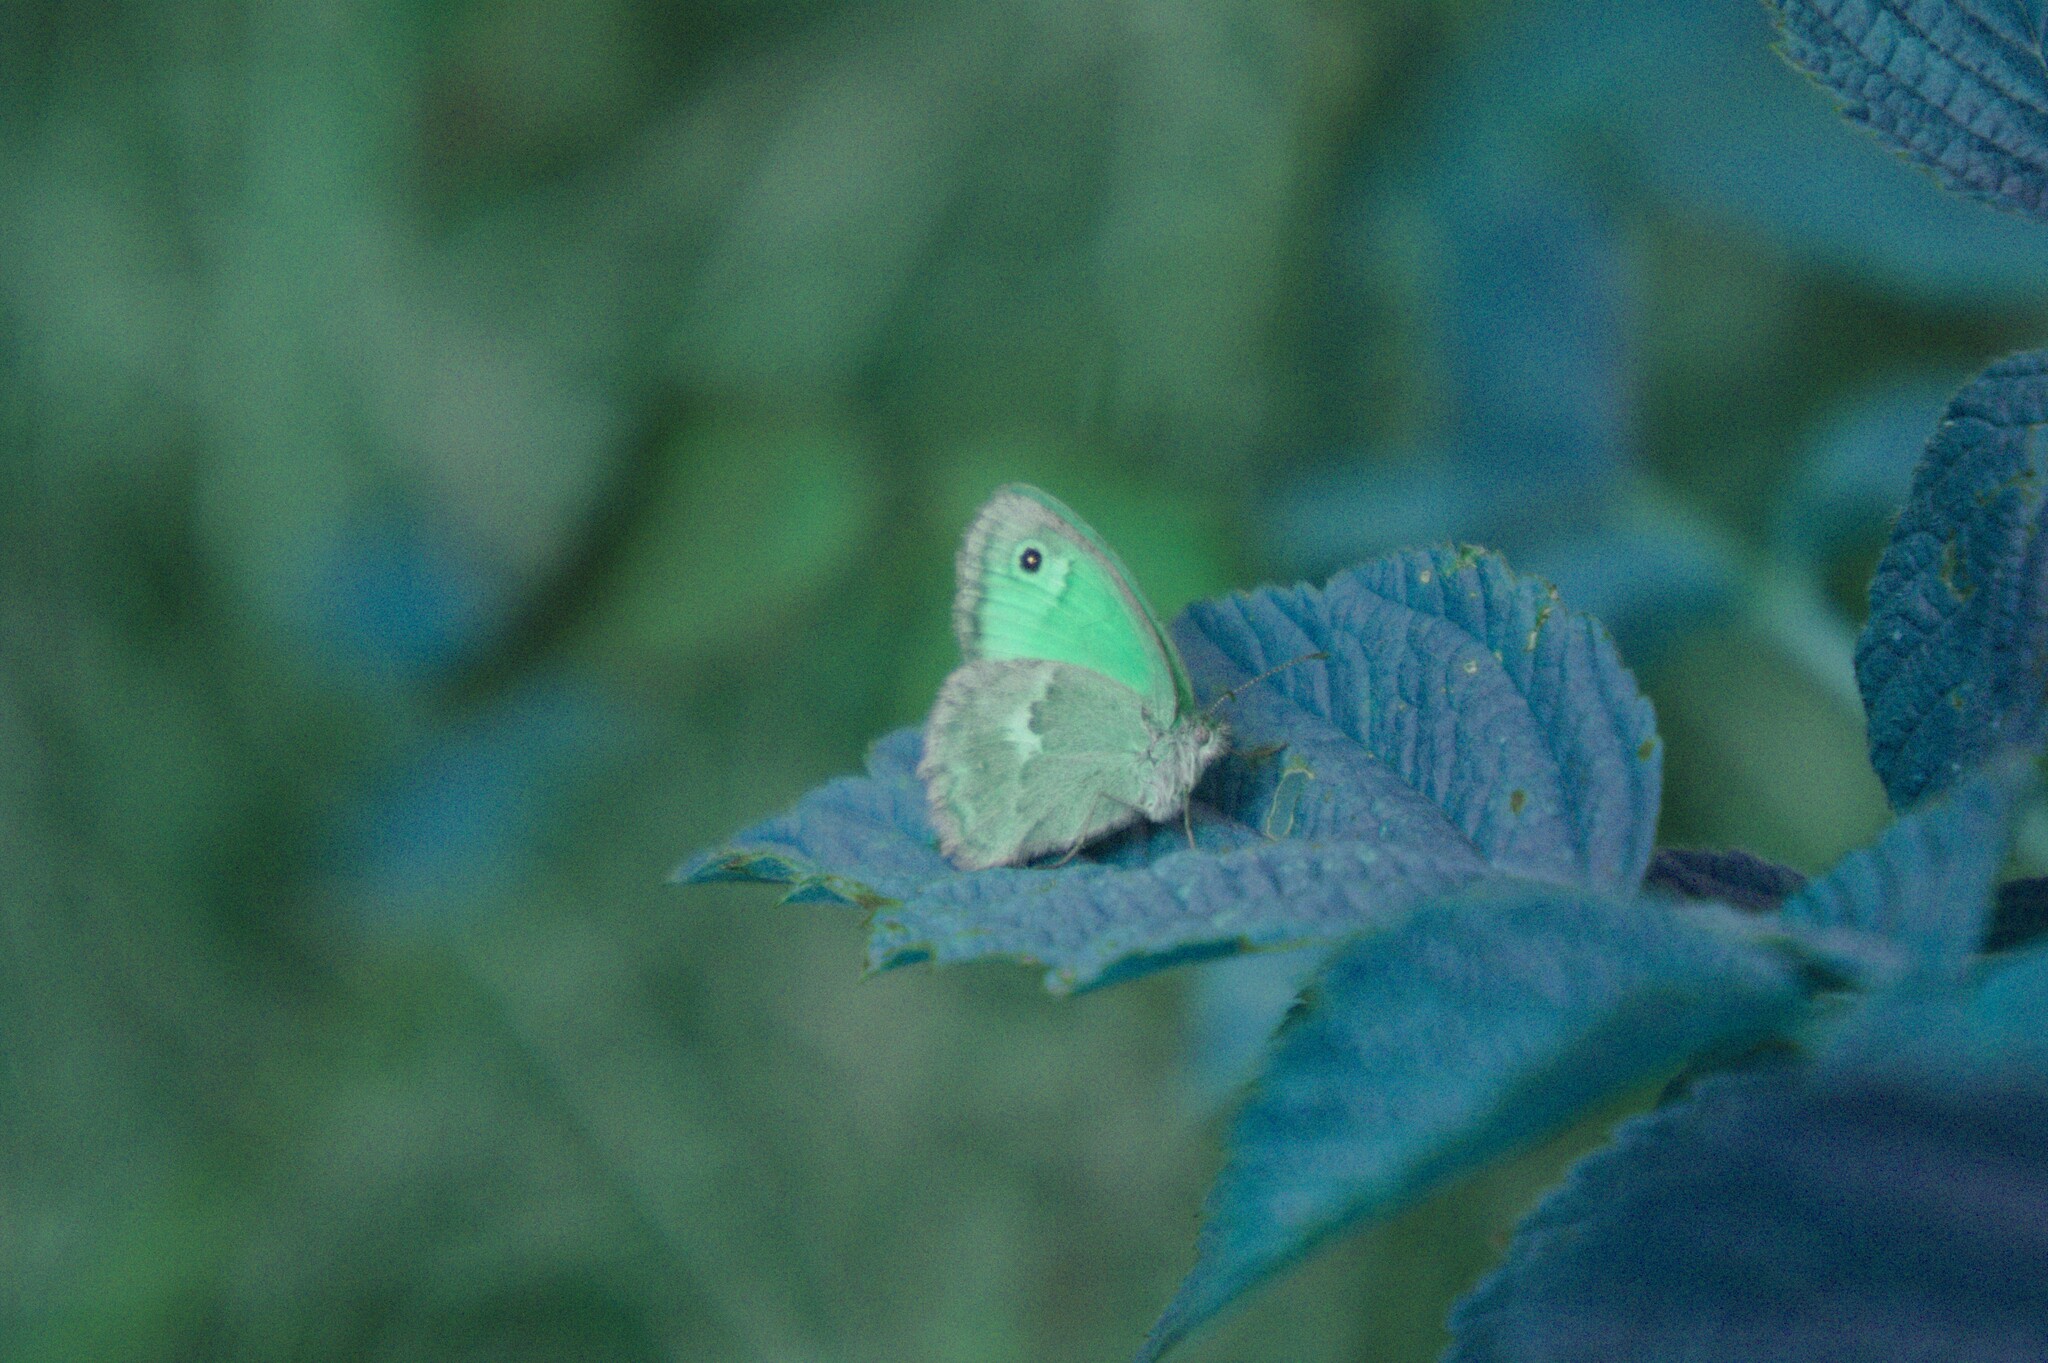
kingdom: Animalia
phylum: Arthropoda
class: Insecta
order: Lepidoptera
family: Nymphalidae
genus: Coenonympha
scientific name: Coenonympha pamphilus
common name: Small heath
